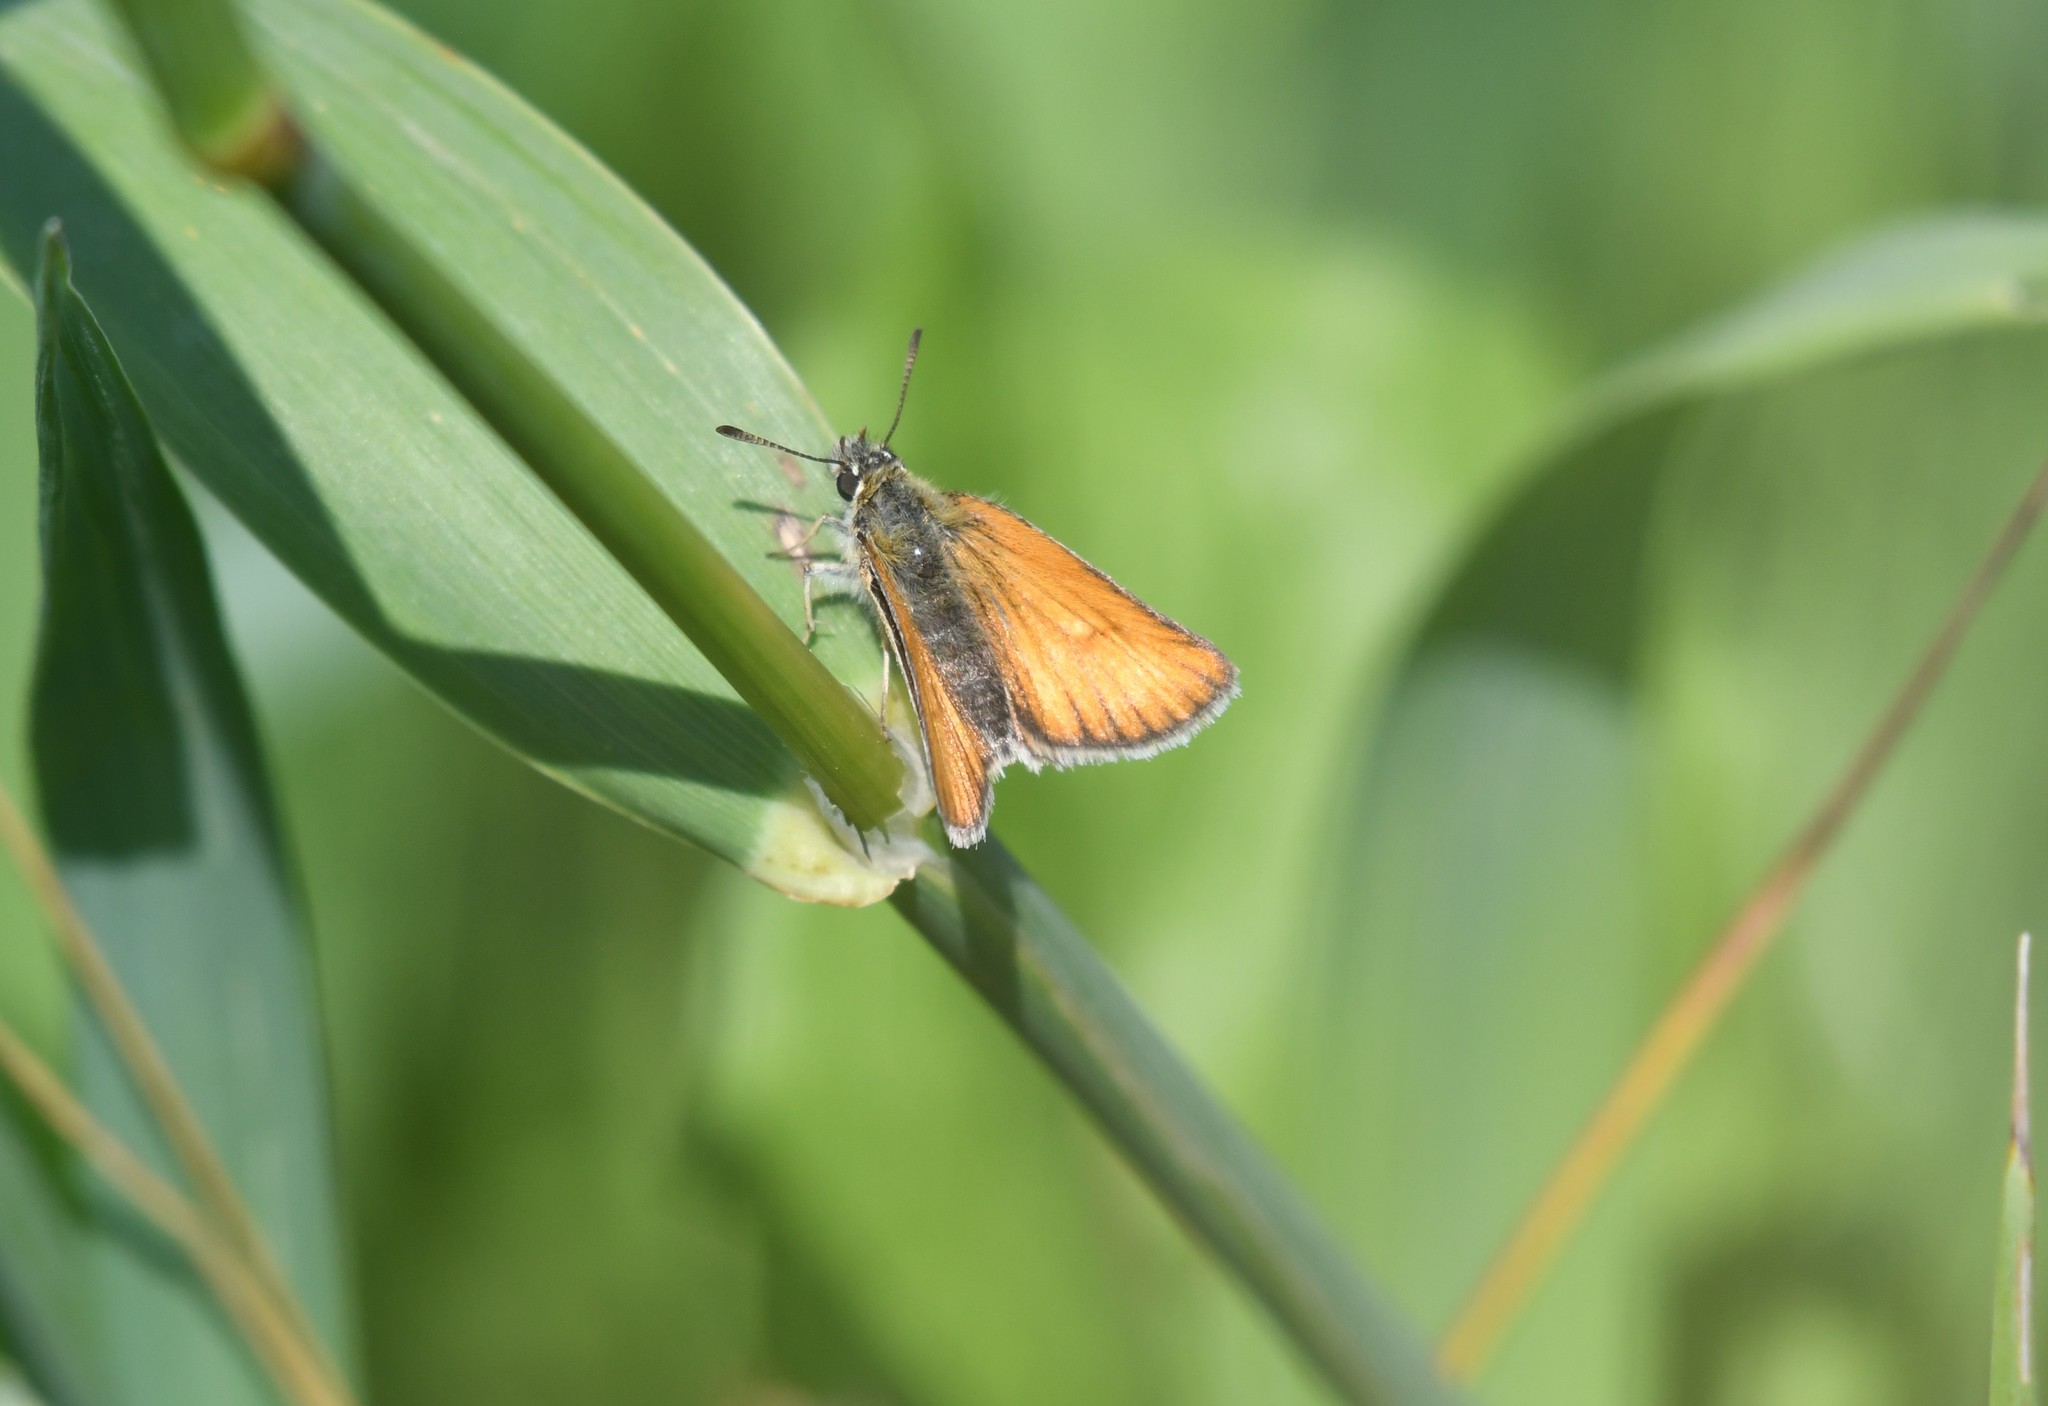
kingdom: Animalia
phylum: Arthropoda
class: Insecta
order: Lepidoptera
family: Hesperiidae
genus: Thymelicus
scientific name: Thymelicus lineola
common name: Essex skipper
